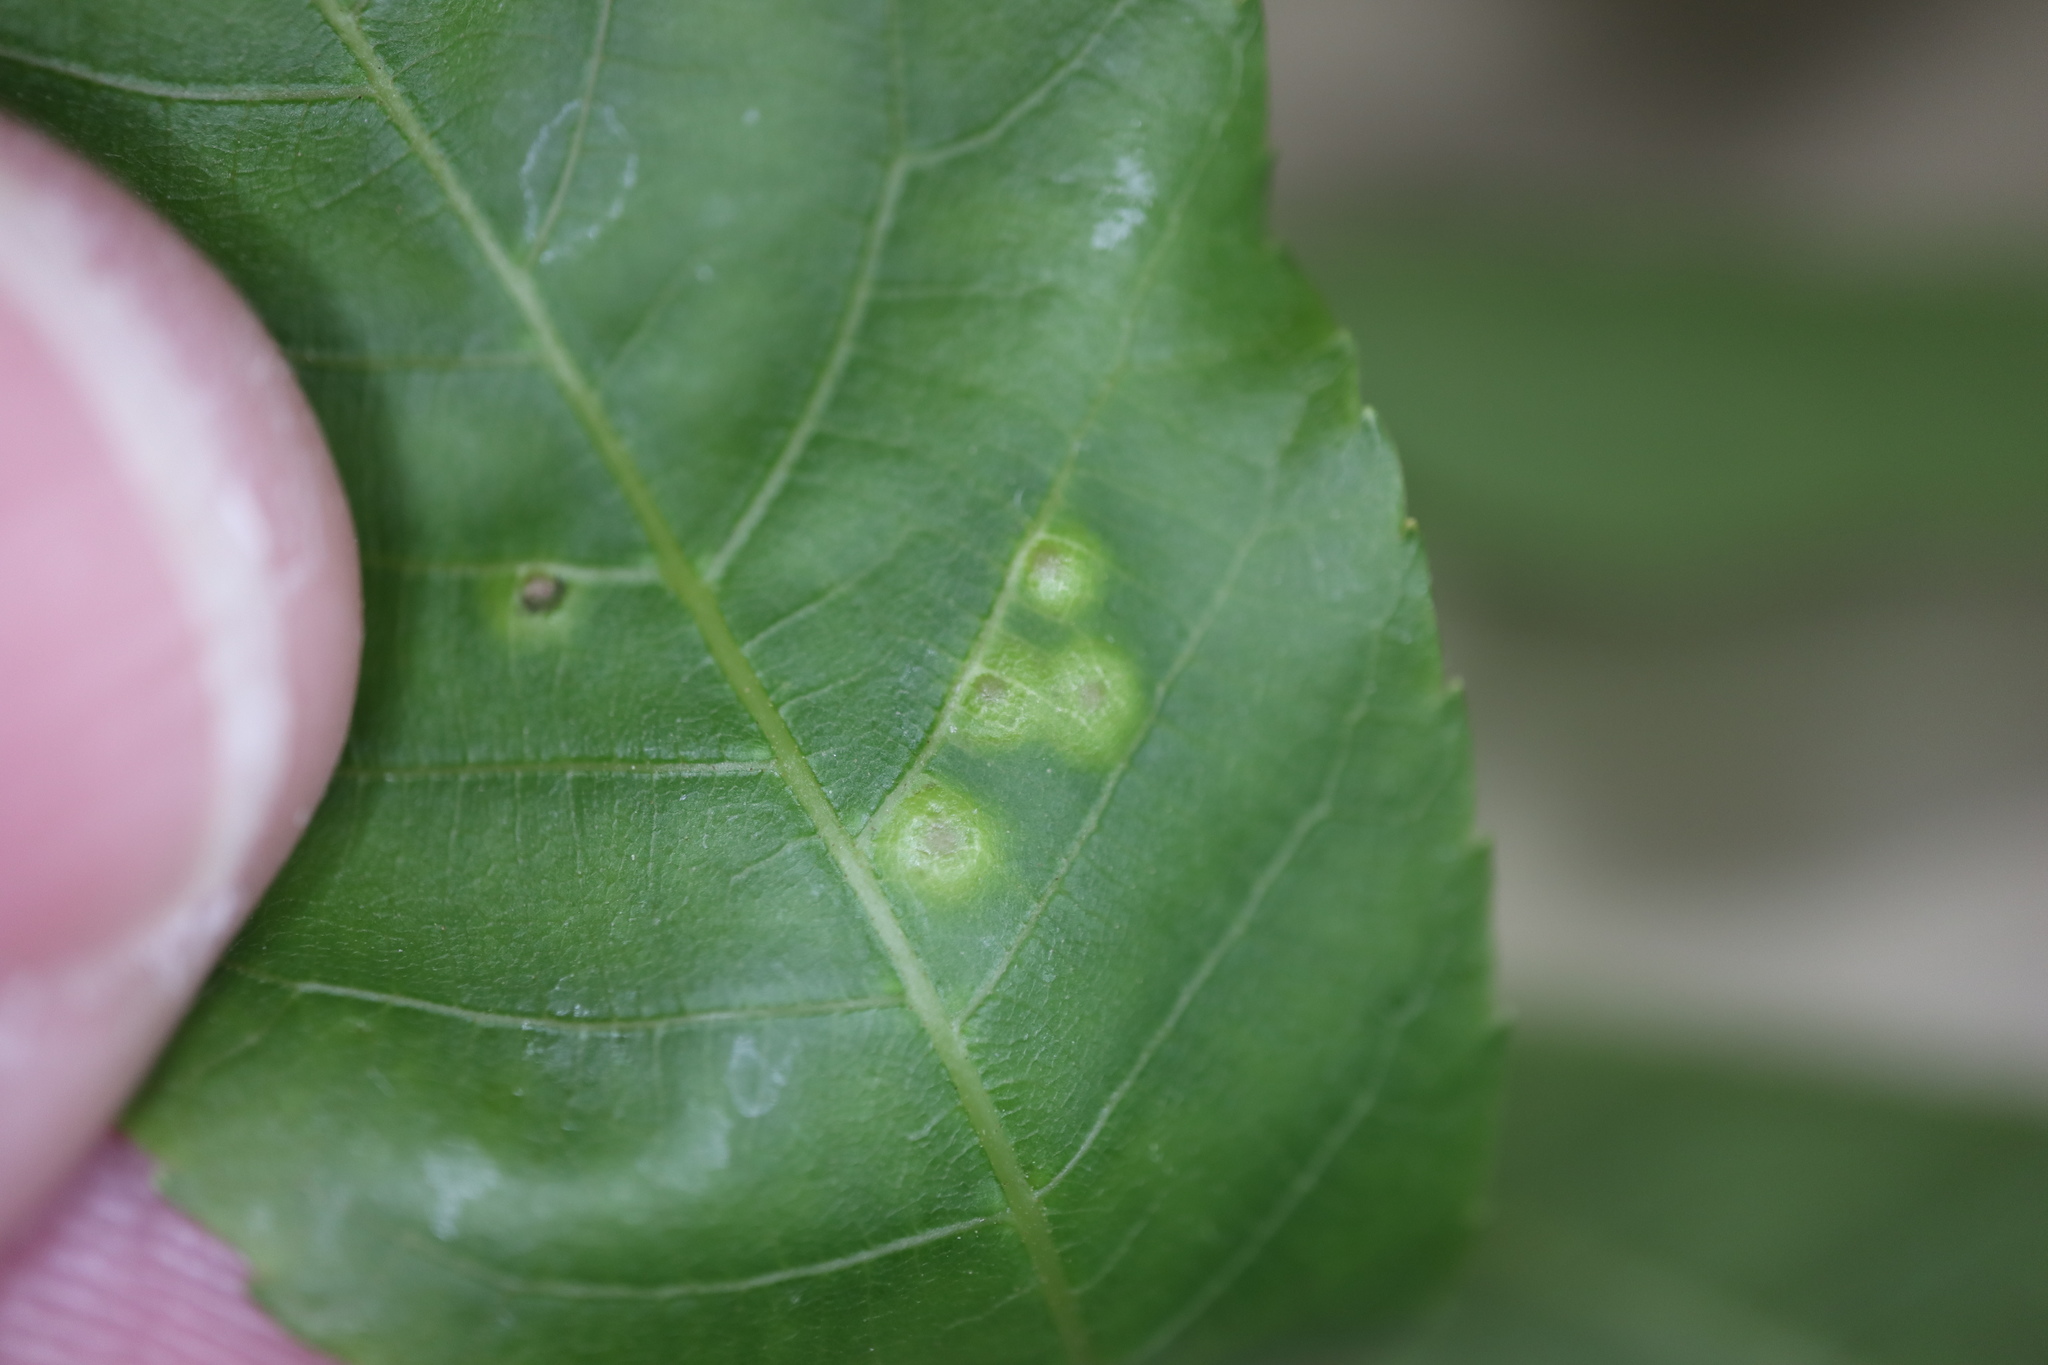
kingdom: Animalia
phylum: Arthropoda
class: Insecta
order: Diptera
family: Cecidomyiidae
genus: Caryomyia
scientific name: Caryomyia striolata
